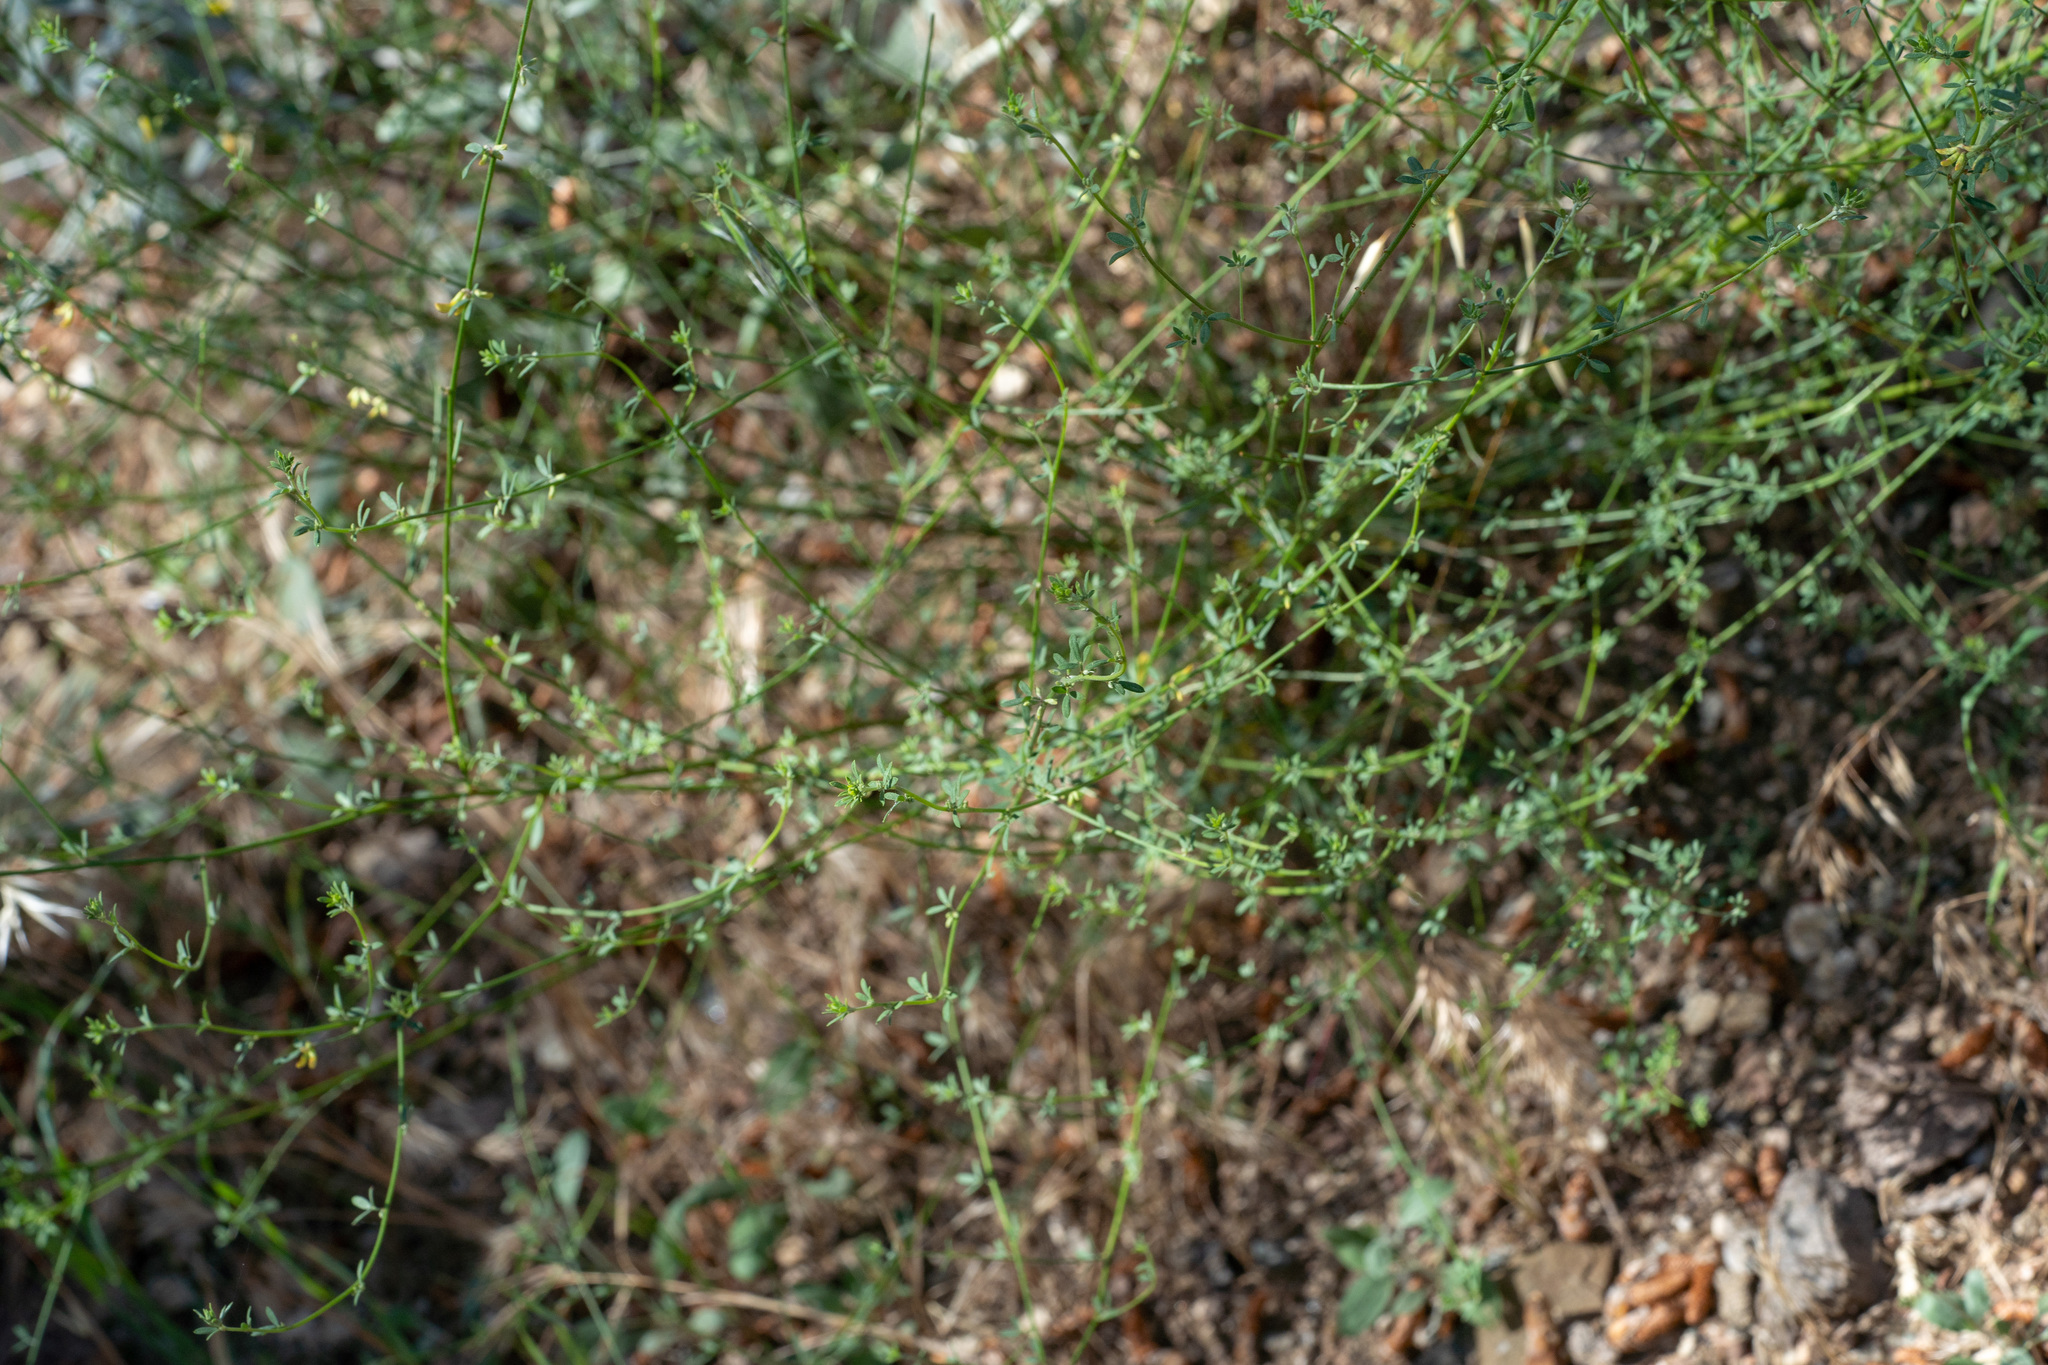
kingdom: Plantae
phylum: Tracheophyta
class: Magnoliopsida
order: Fabales
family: Fabaceae
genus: Acmispon
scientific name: Acmispon glaber
